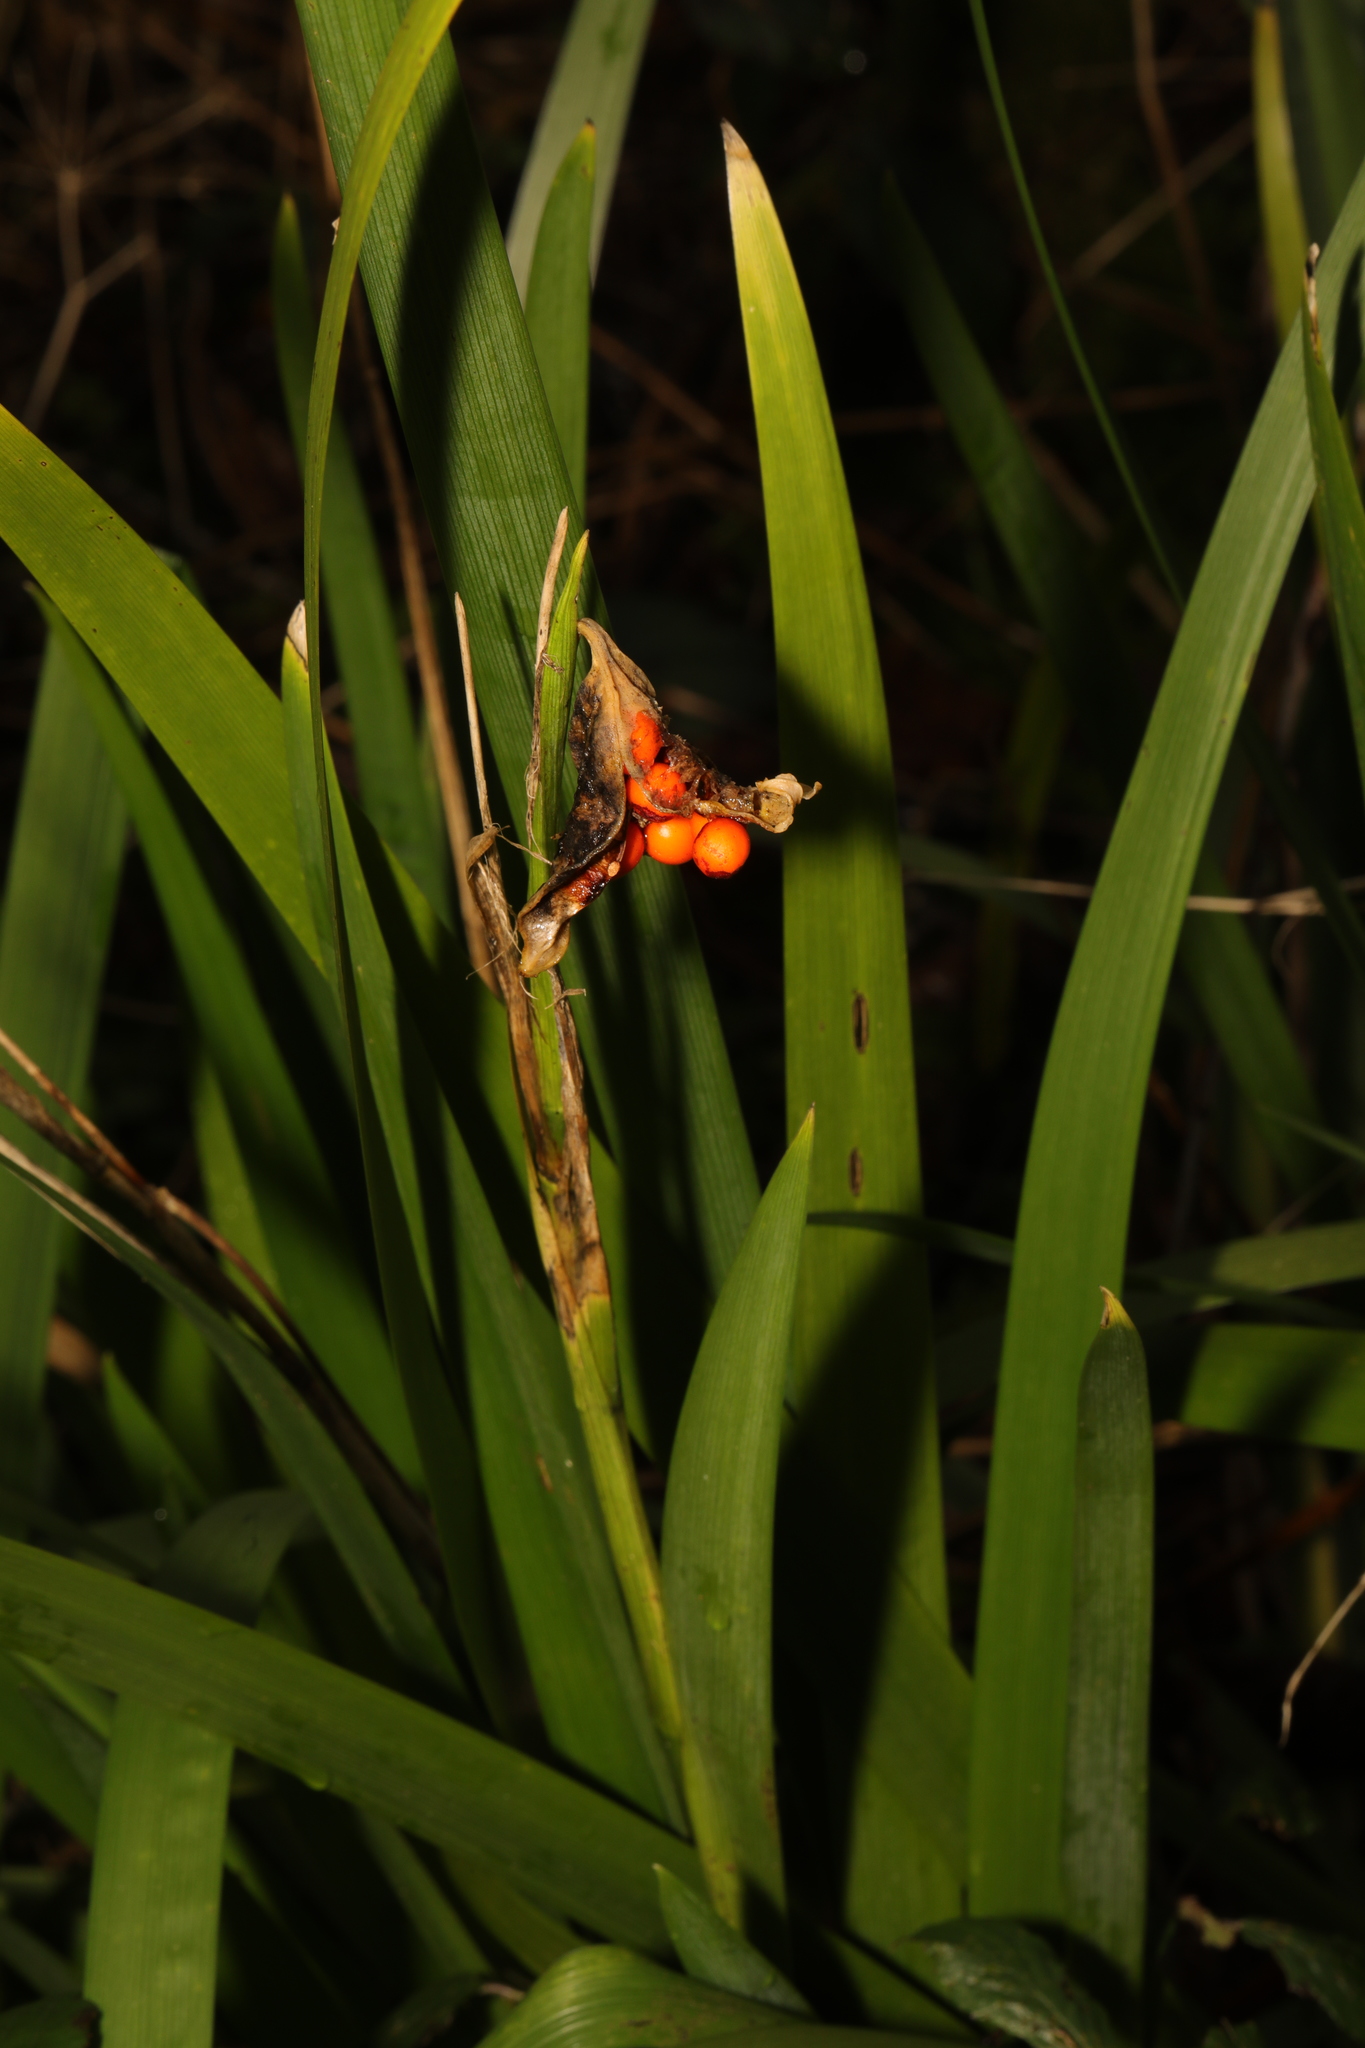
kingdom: Plantae
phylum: Tracheophyta
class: Liliopsida
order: Asparagales
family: Iridaceae
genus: Iris
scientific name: Iris foetidissima
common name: Stinking iris
